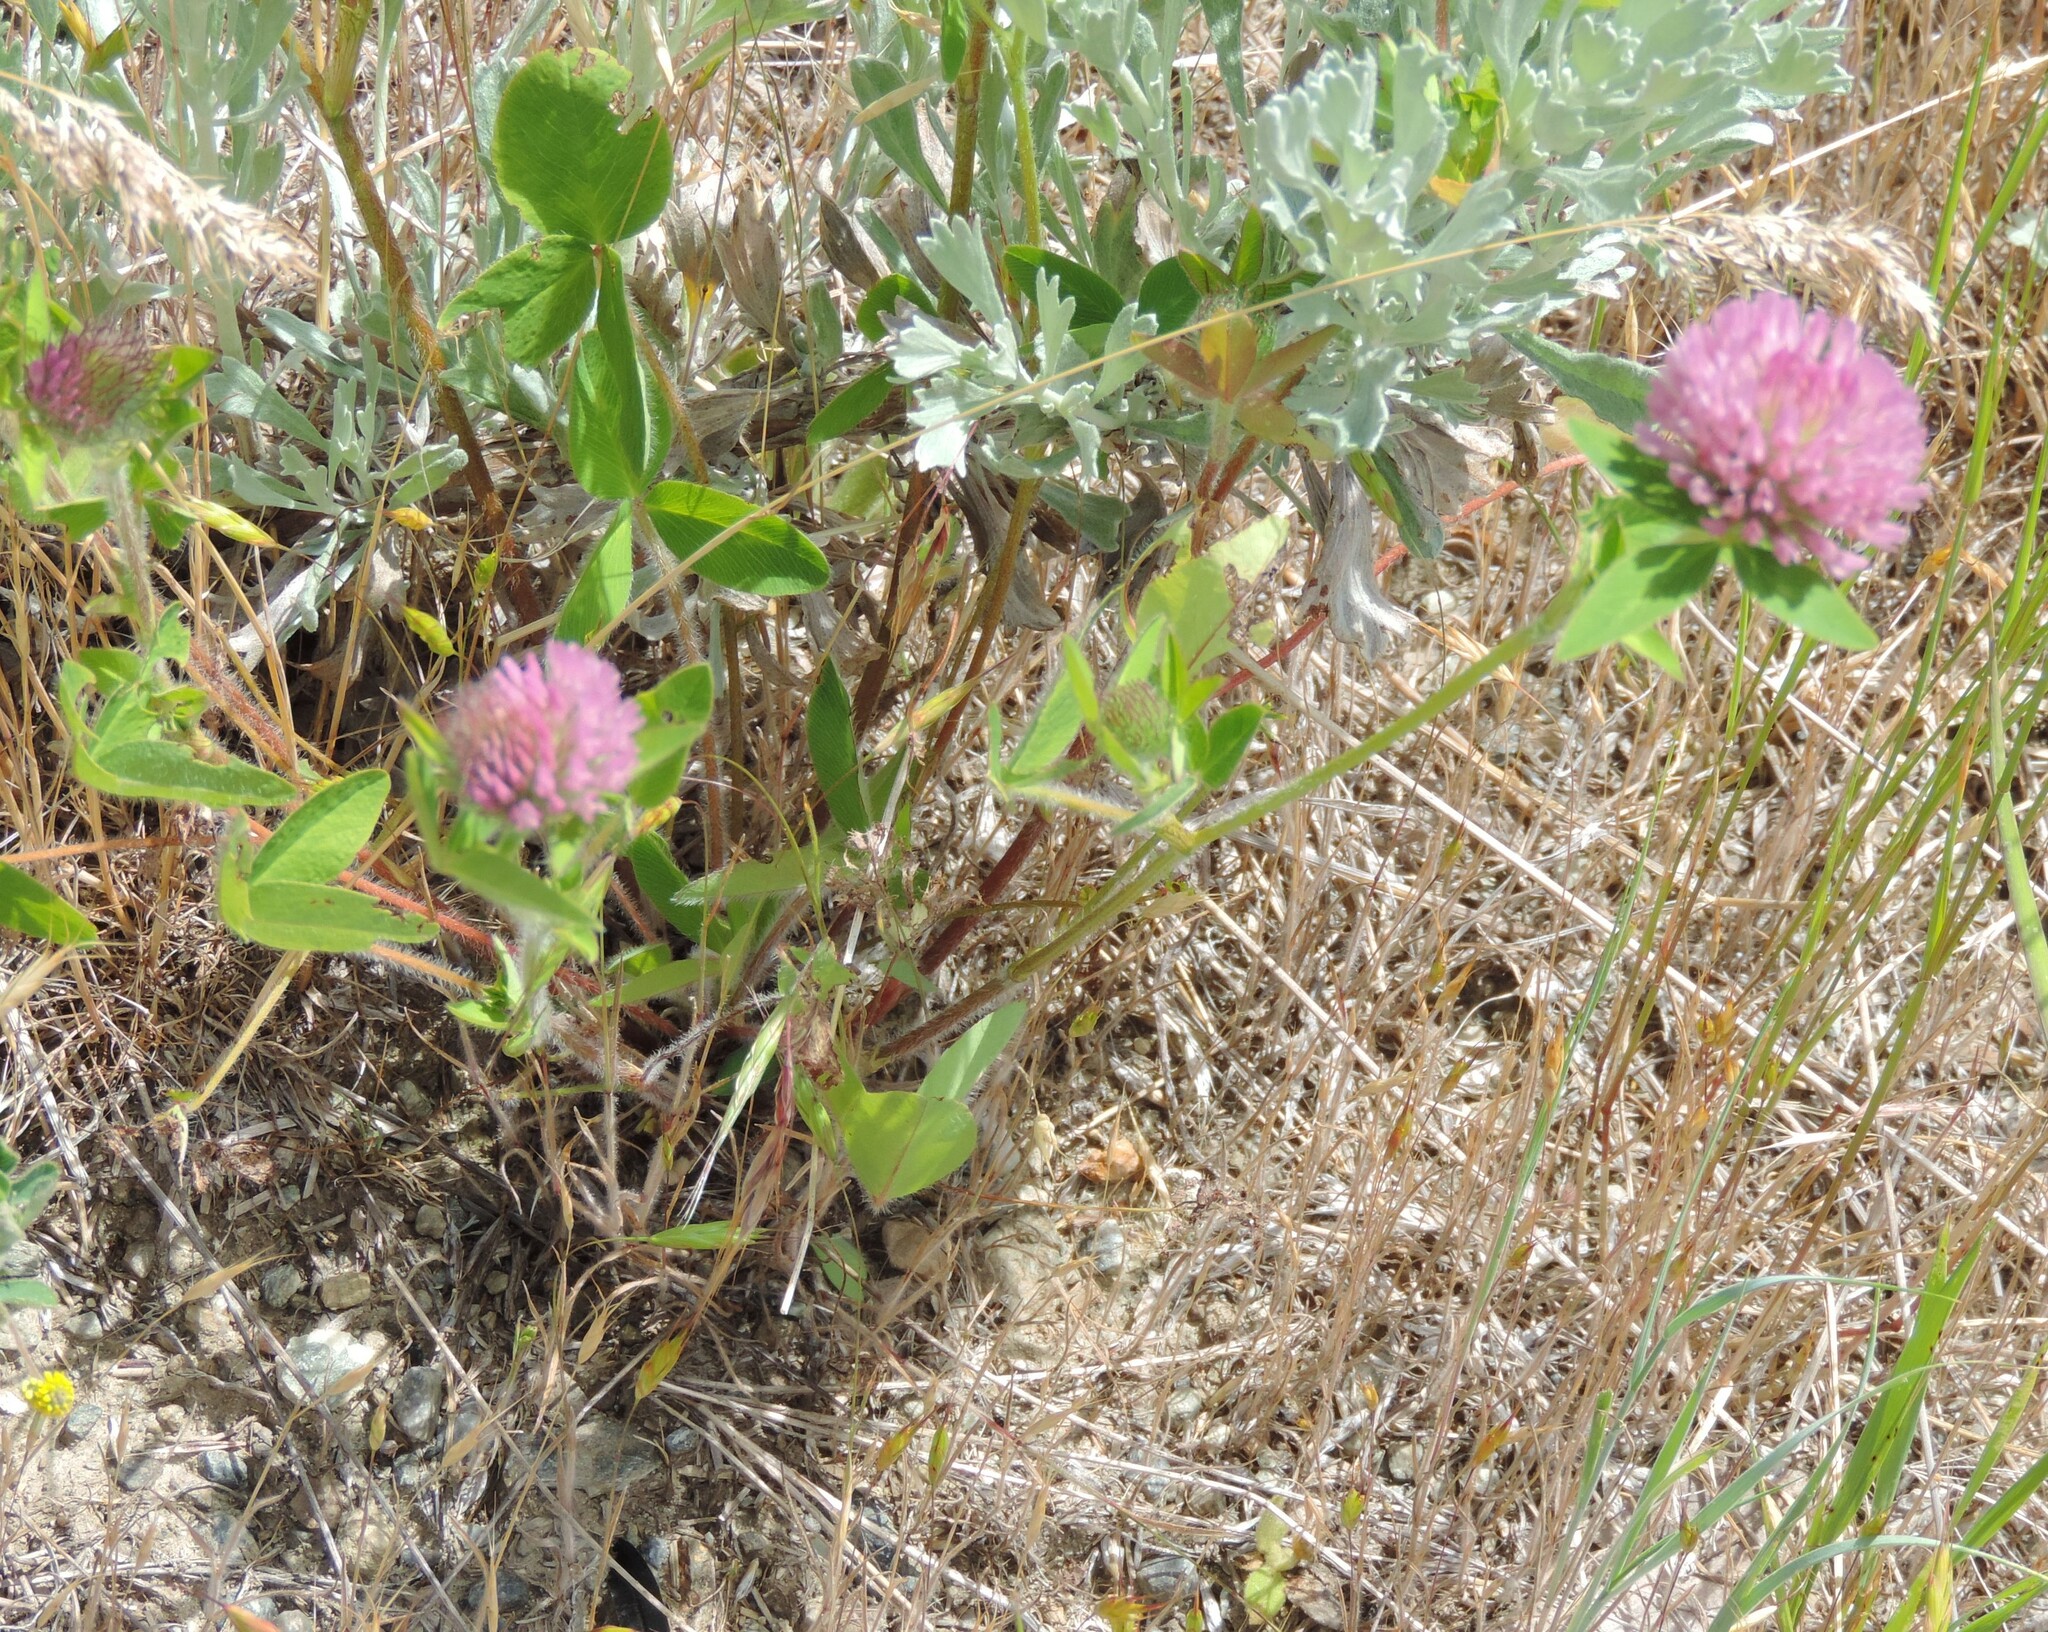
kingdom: Plantae
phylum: Tracheophyta
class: Magnoliopsida
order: Fabales
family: Fabaceae
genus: Trifolium
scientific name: Trifolium pratense
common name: Red clover
